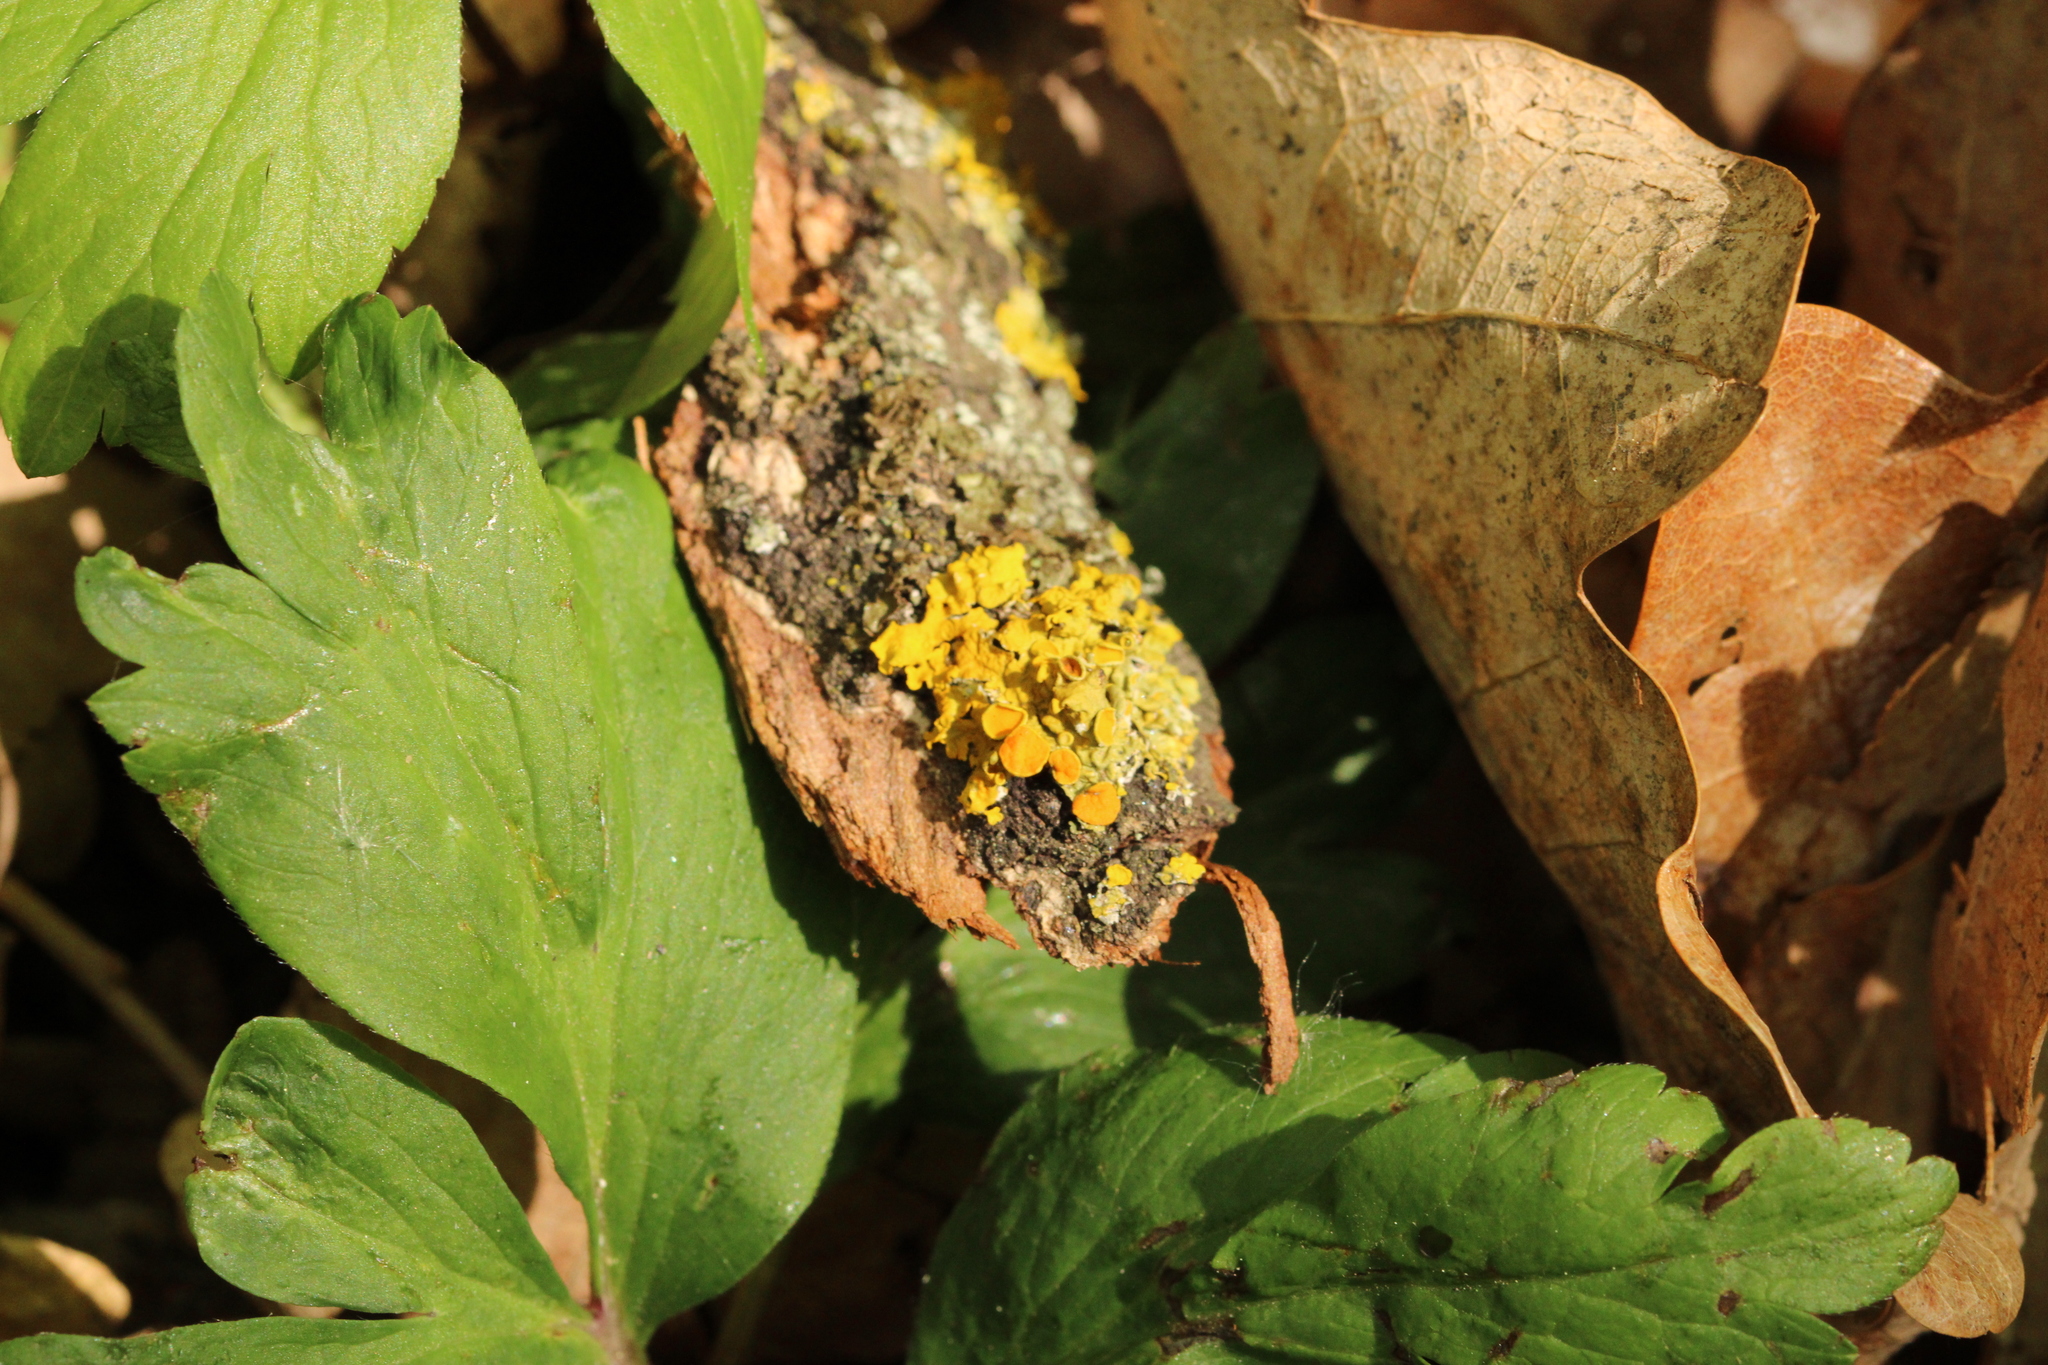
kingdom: Fungi
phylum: Ascomycota
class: Lecanoromycetes
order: Teloschistales
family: Teloschistaceae
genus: Xanthoria
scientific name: Xanthoria parietina
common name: Common orange lichen
